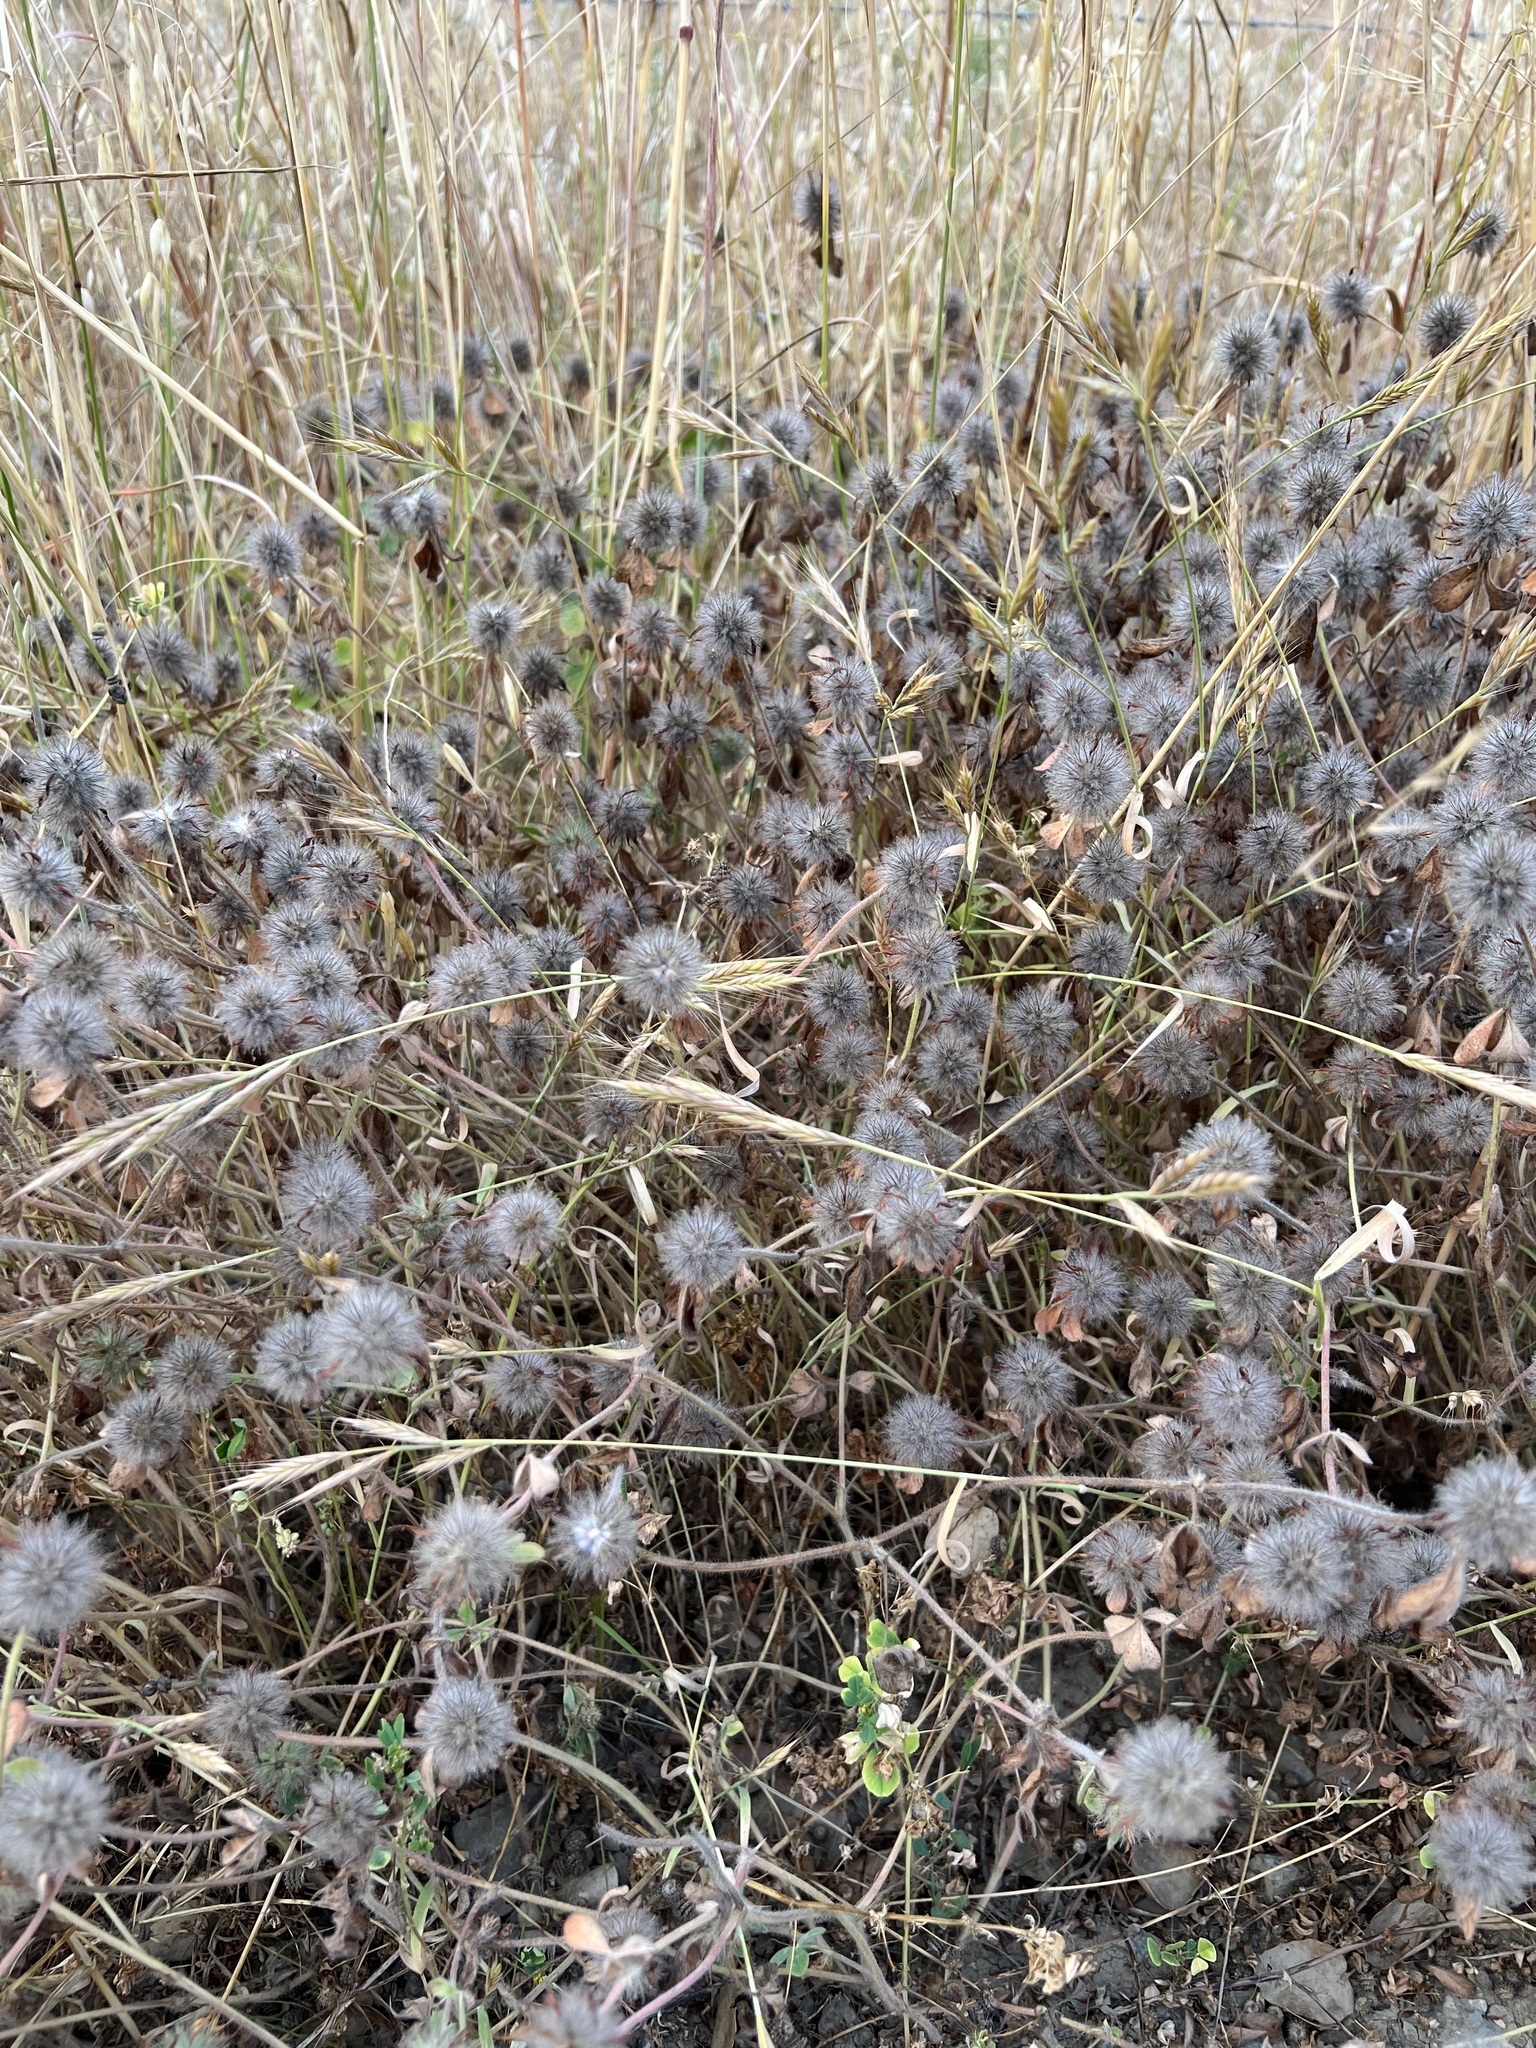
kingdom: Plantae
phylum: Tracheophyta
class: Magnoliopsida
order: Fabales
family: Fabaceae
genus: Trifolium
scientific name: Trifolium hirtum
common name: Rose clover
